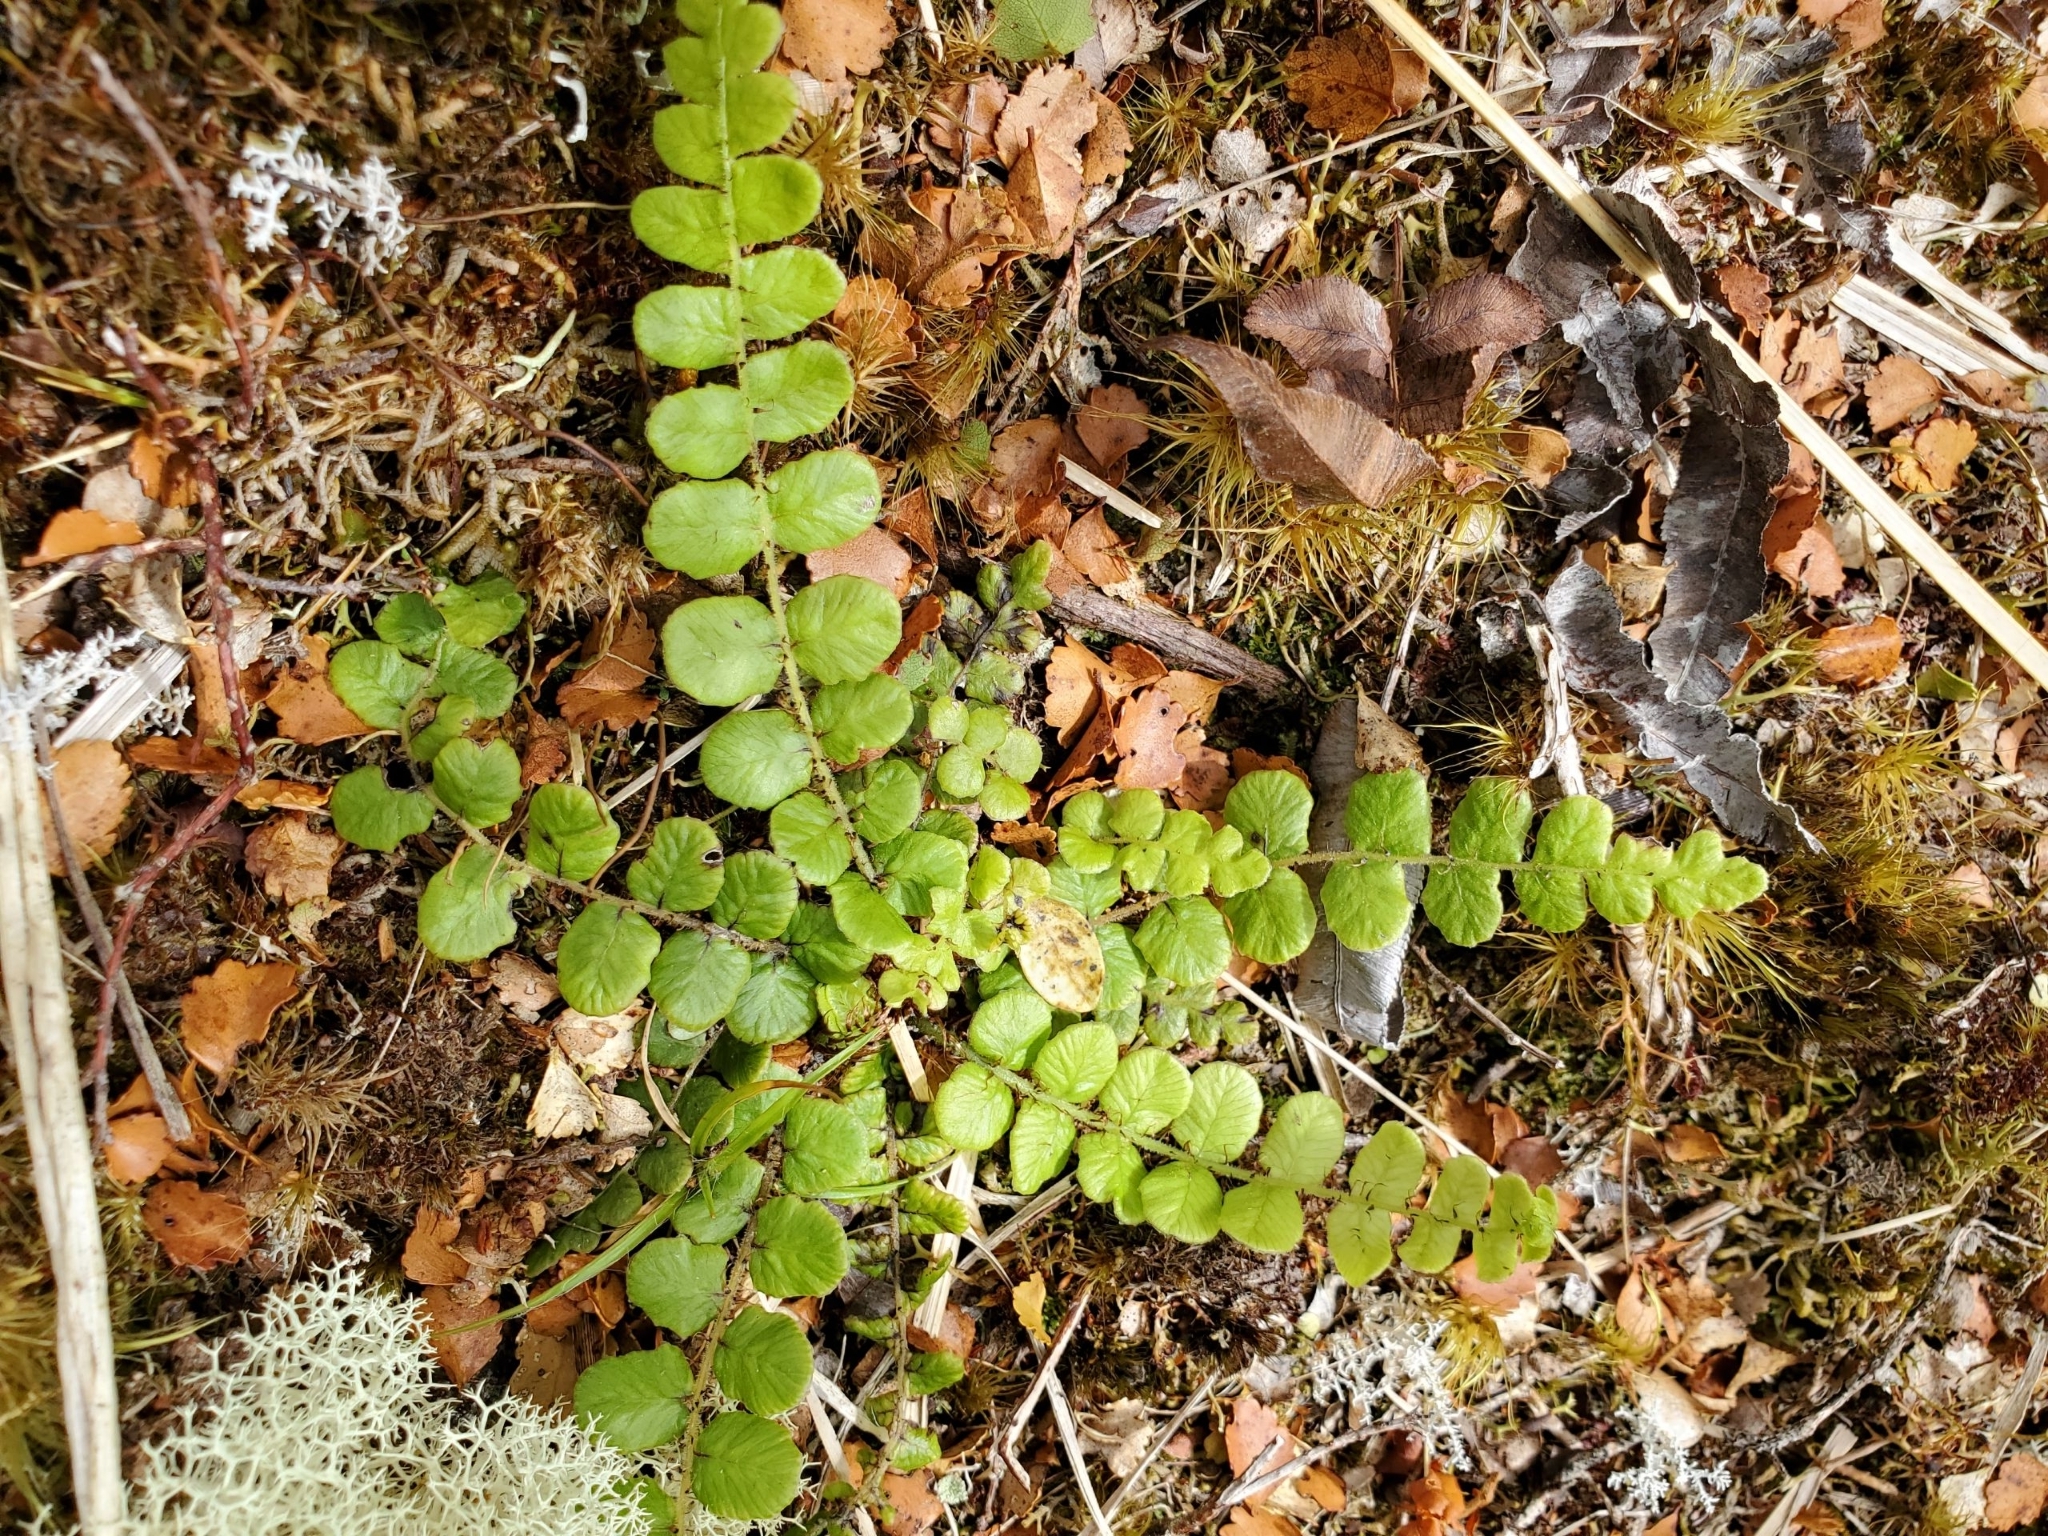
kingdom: Plantae
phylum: Tracheophyta
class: Polypodiopsida
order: Polypodiales
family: Blechnaceae
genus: Cranfillia
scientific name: Cranfillia fluviatilis
